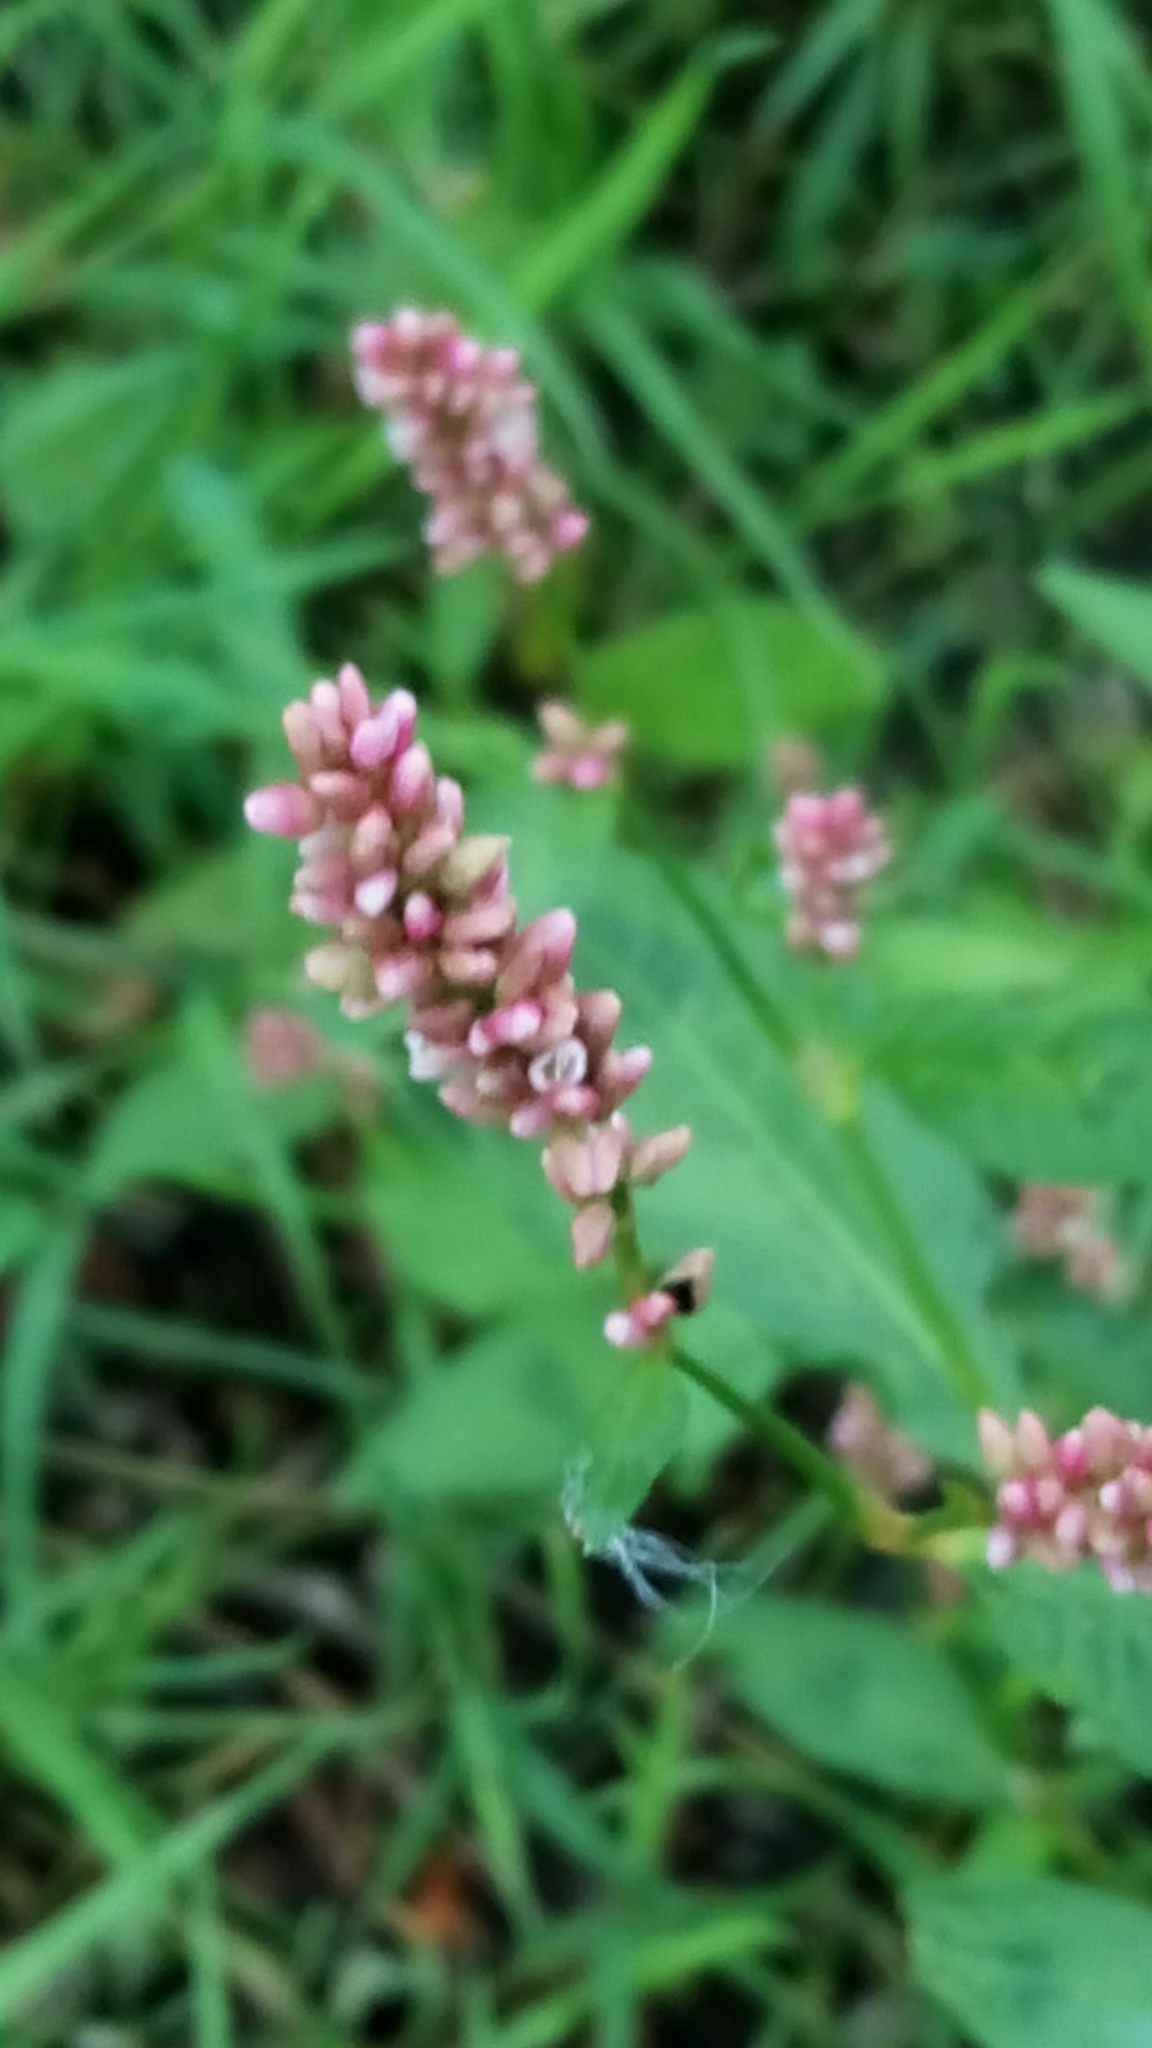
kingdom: Plantae
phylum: Tracheophyta
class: Magnoliopsida
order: Caryophyllales
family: Polygonaceae
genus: Persicaria
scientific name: Persicaria maculosa
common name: Redshank
